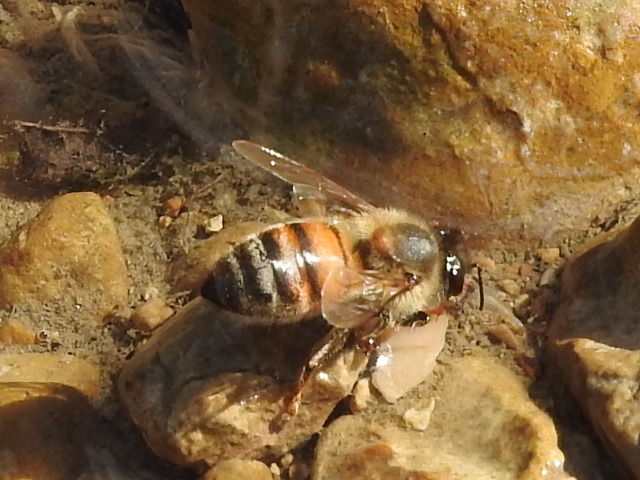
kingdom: Animalia
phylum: Arthropoda
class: Insecta
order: Hymenoptera
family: Apidae
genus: Apis
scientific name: Apis mellifera
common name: Honey bee
